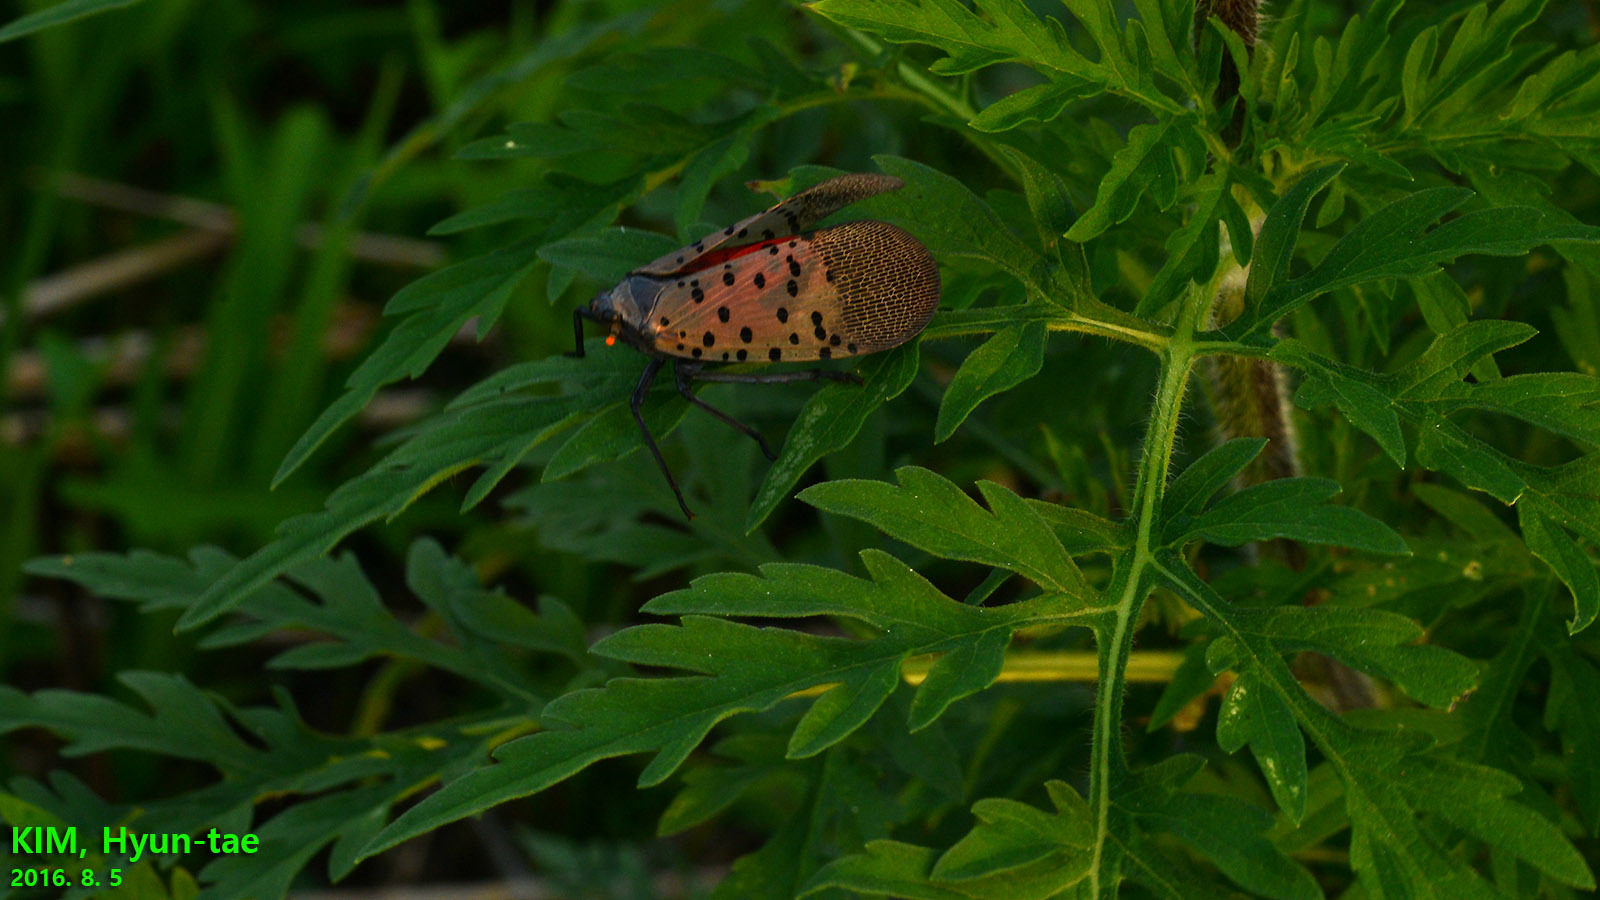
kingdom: Animalia
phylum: Arthropoda
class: Insecta
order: Hemiptera
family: Fulgoridae
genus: Lycorma
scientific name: Lycorma delicatula
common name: Spotted lanternfly
